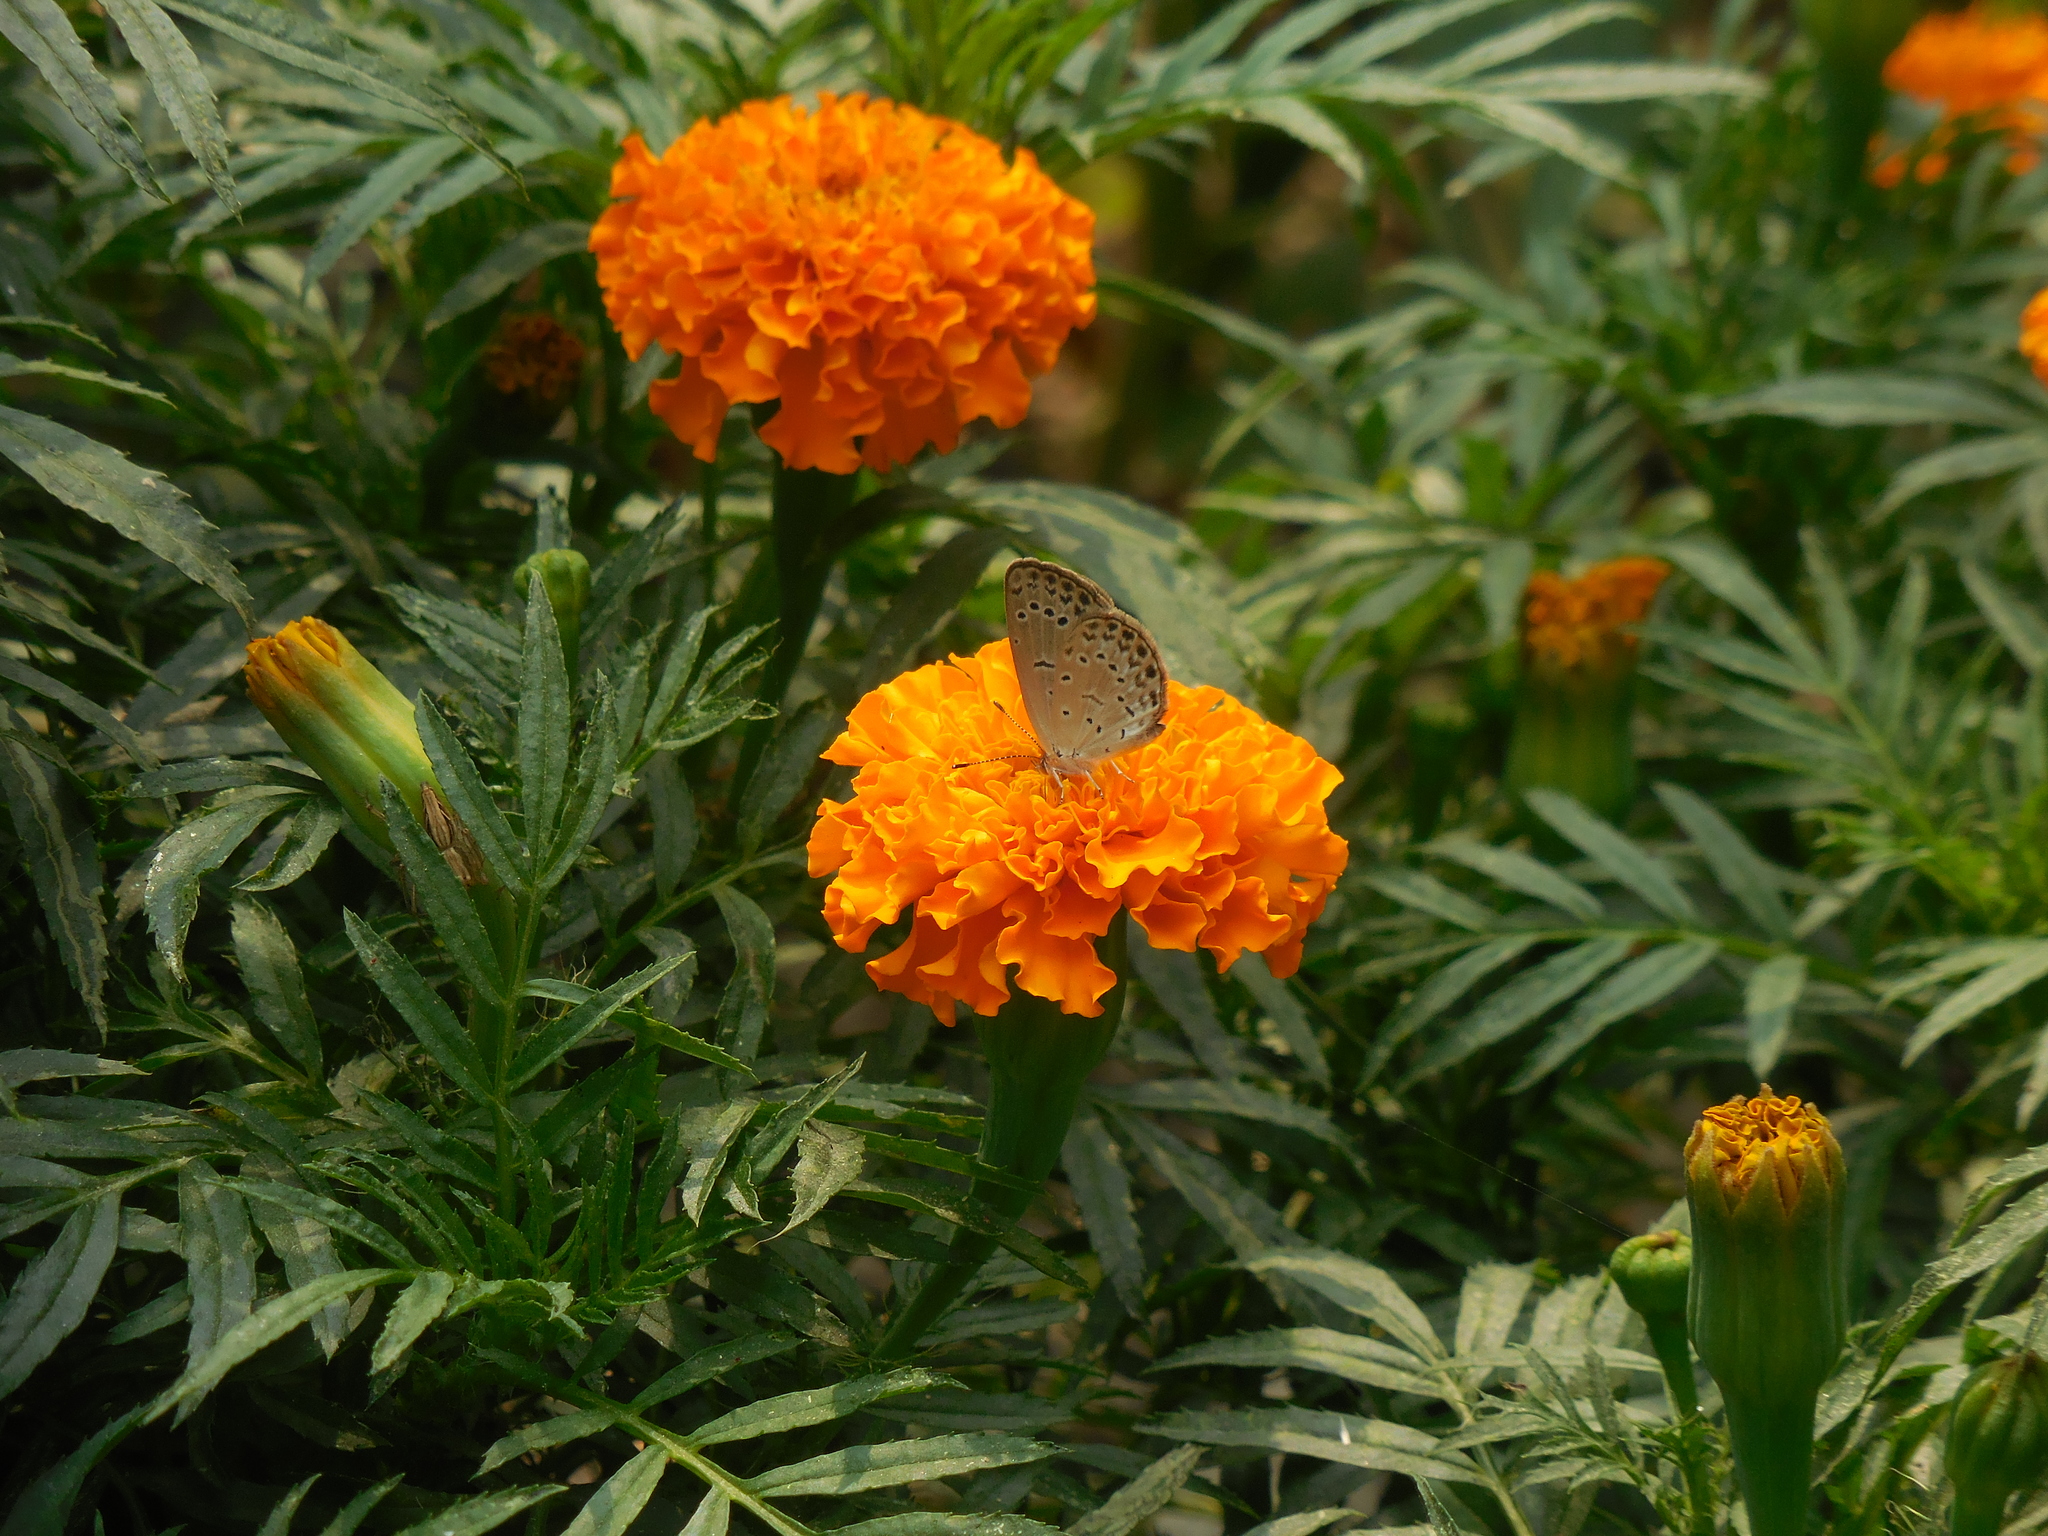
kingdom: Animalia
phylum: Arthropoda
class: Insecta
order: Lepidoptera
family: Lycaenidae
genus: Pseudozizeeria
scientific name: Pseudozizeeria maha
